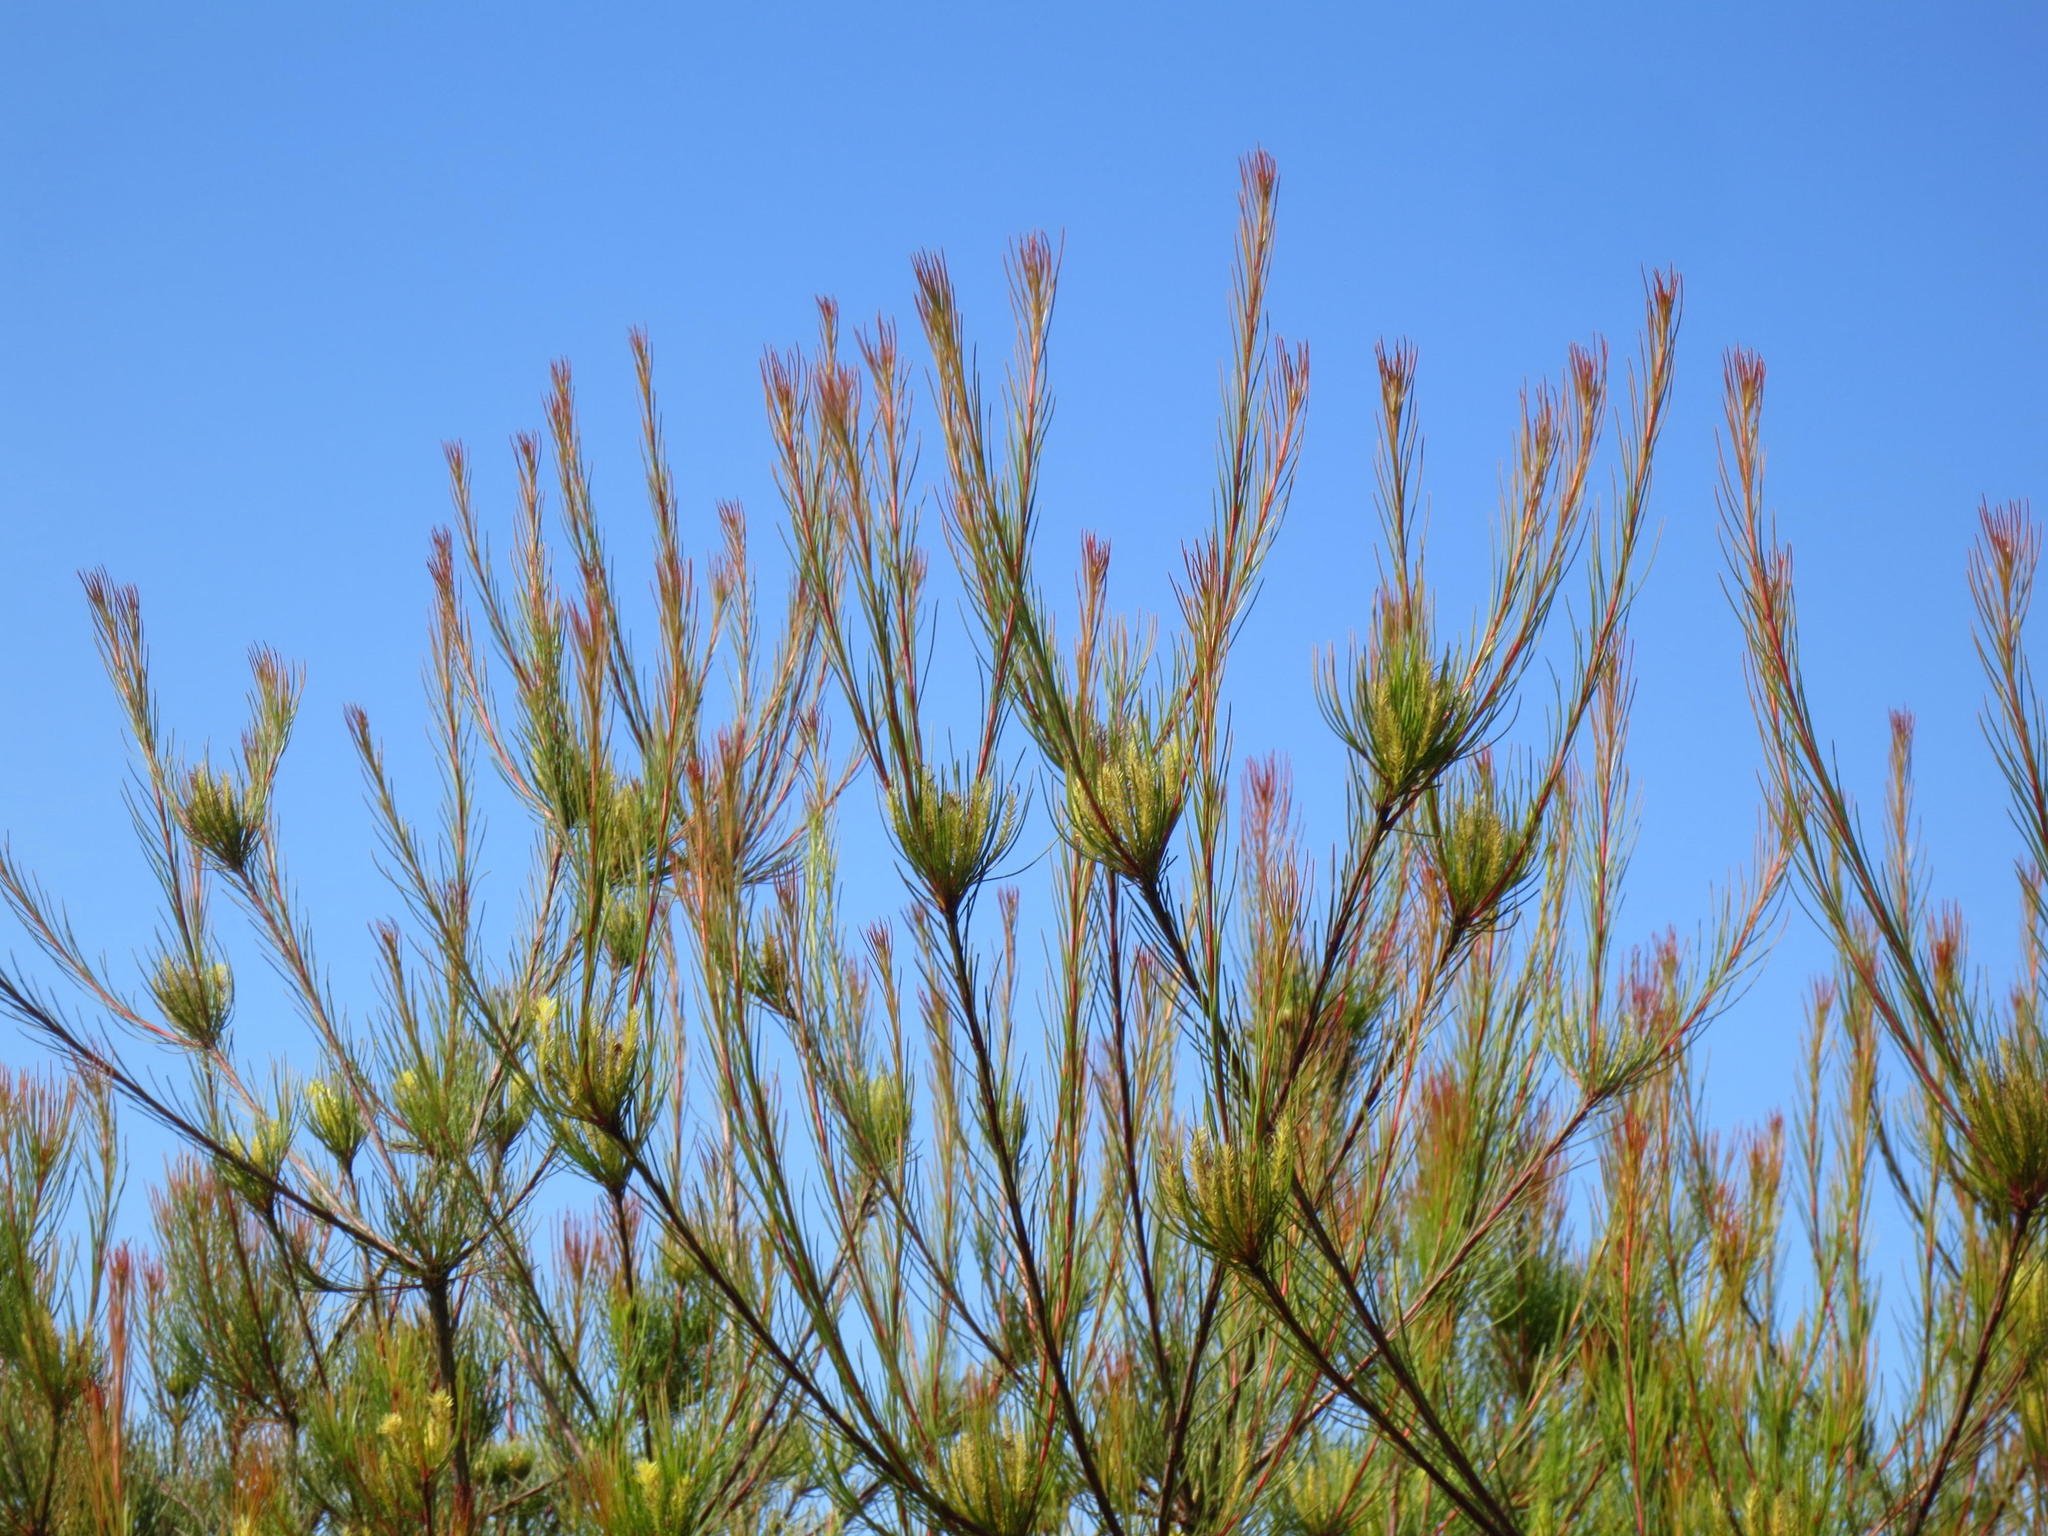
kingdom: Plantae
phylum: Tracheophyta
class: Magnoliopsida
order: Proteales
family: Proteaceae
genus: Aulax
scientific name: Aulax cancellata
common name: Channel-leaf featherbush
